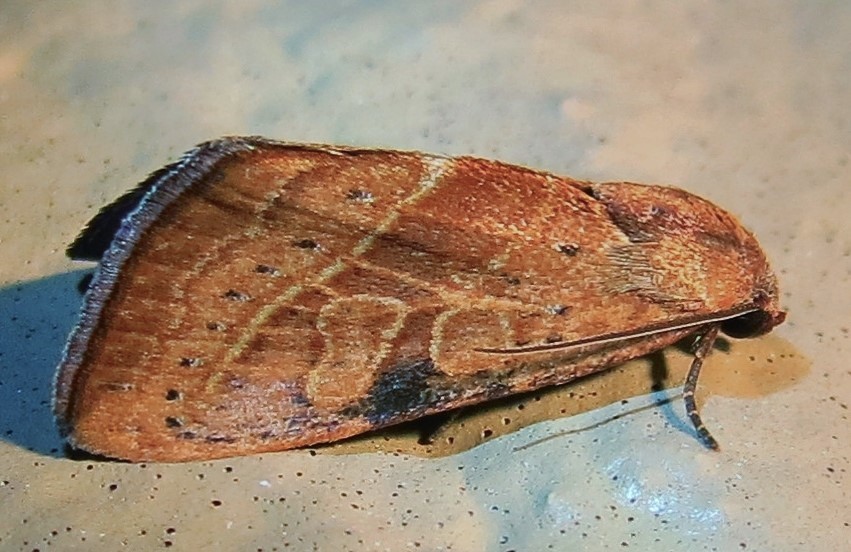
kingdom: Animalia
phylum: Arthropoda
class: Insecta
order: Lepidoptera
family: Noctuidae
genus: Galgula
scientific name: Galgula partita
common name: Wedgeling
